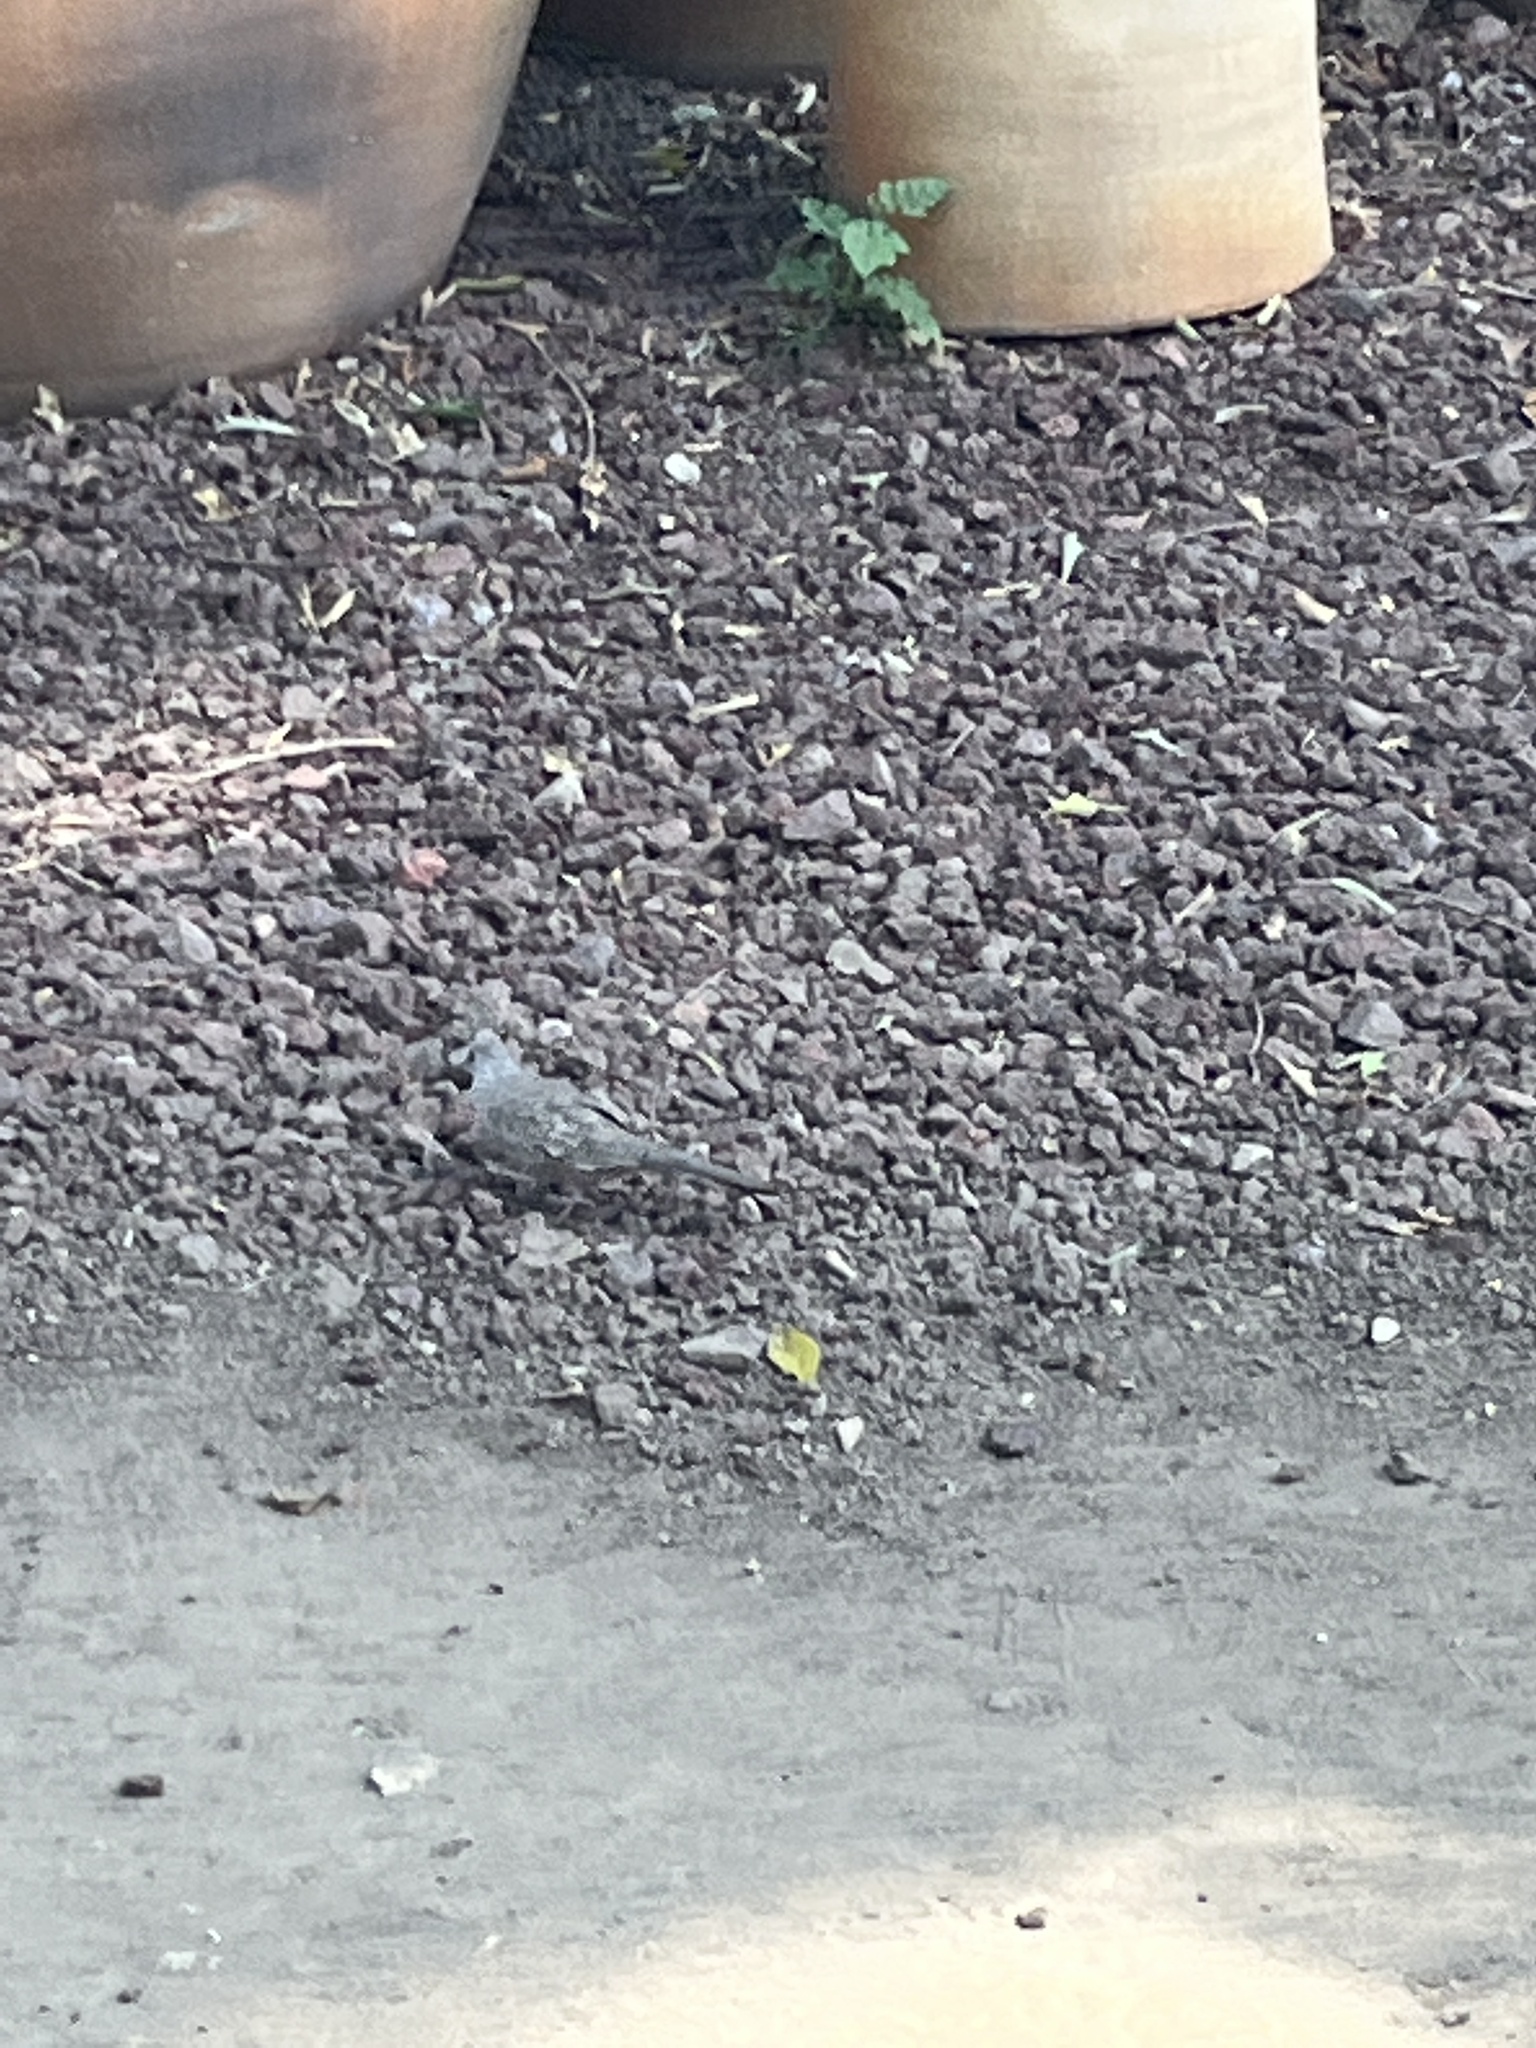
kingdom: Animalia
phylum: Chordata
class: Aves
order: Columbiformes
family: Columbidae
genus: Columbina
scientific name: Columbina inca
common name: Inca dove
